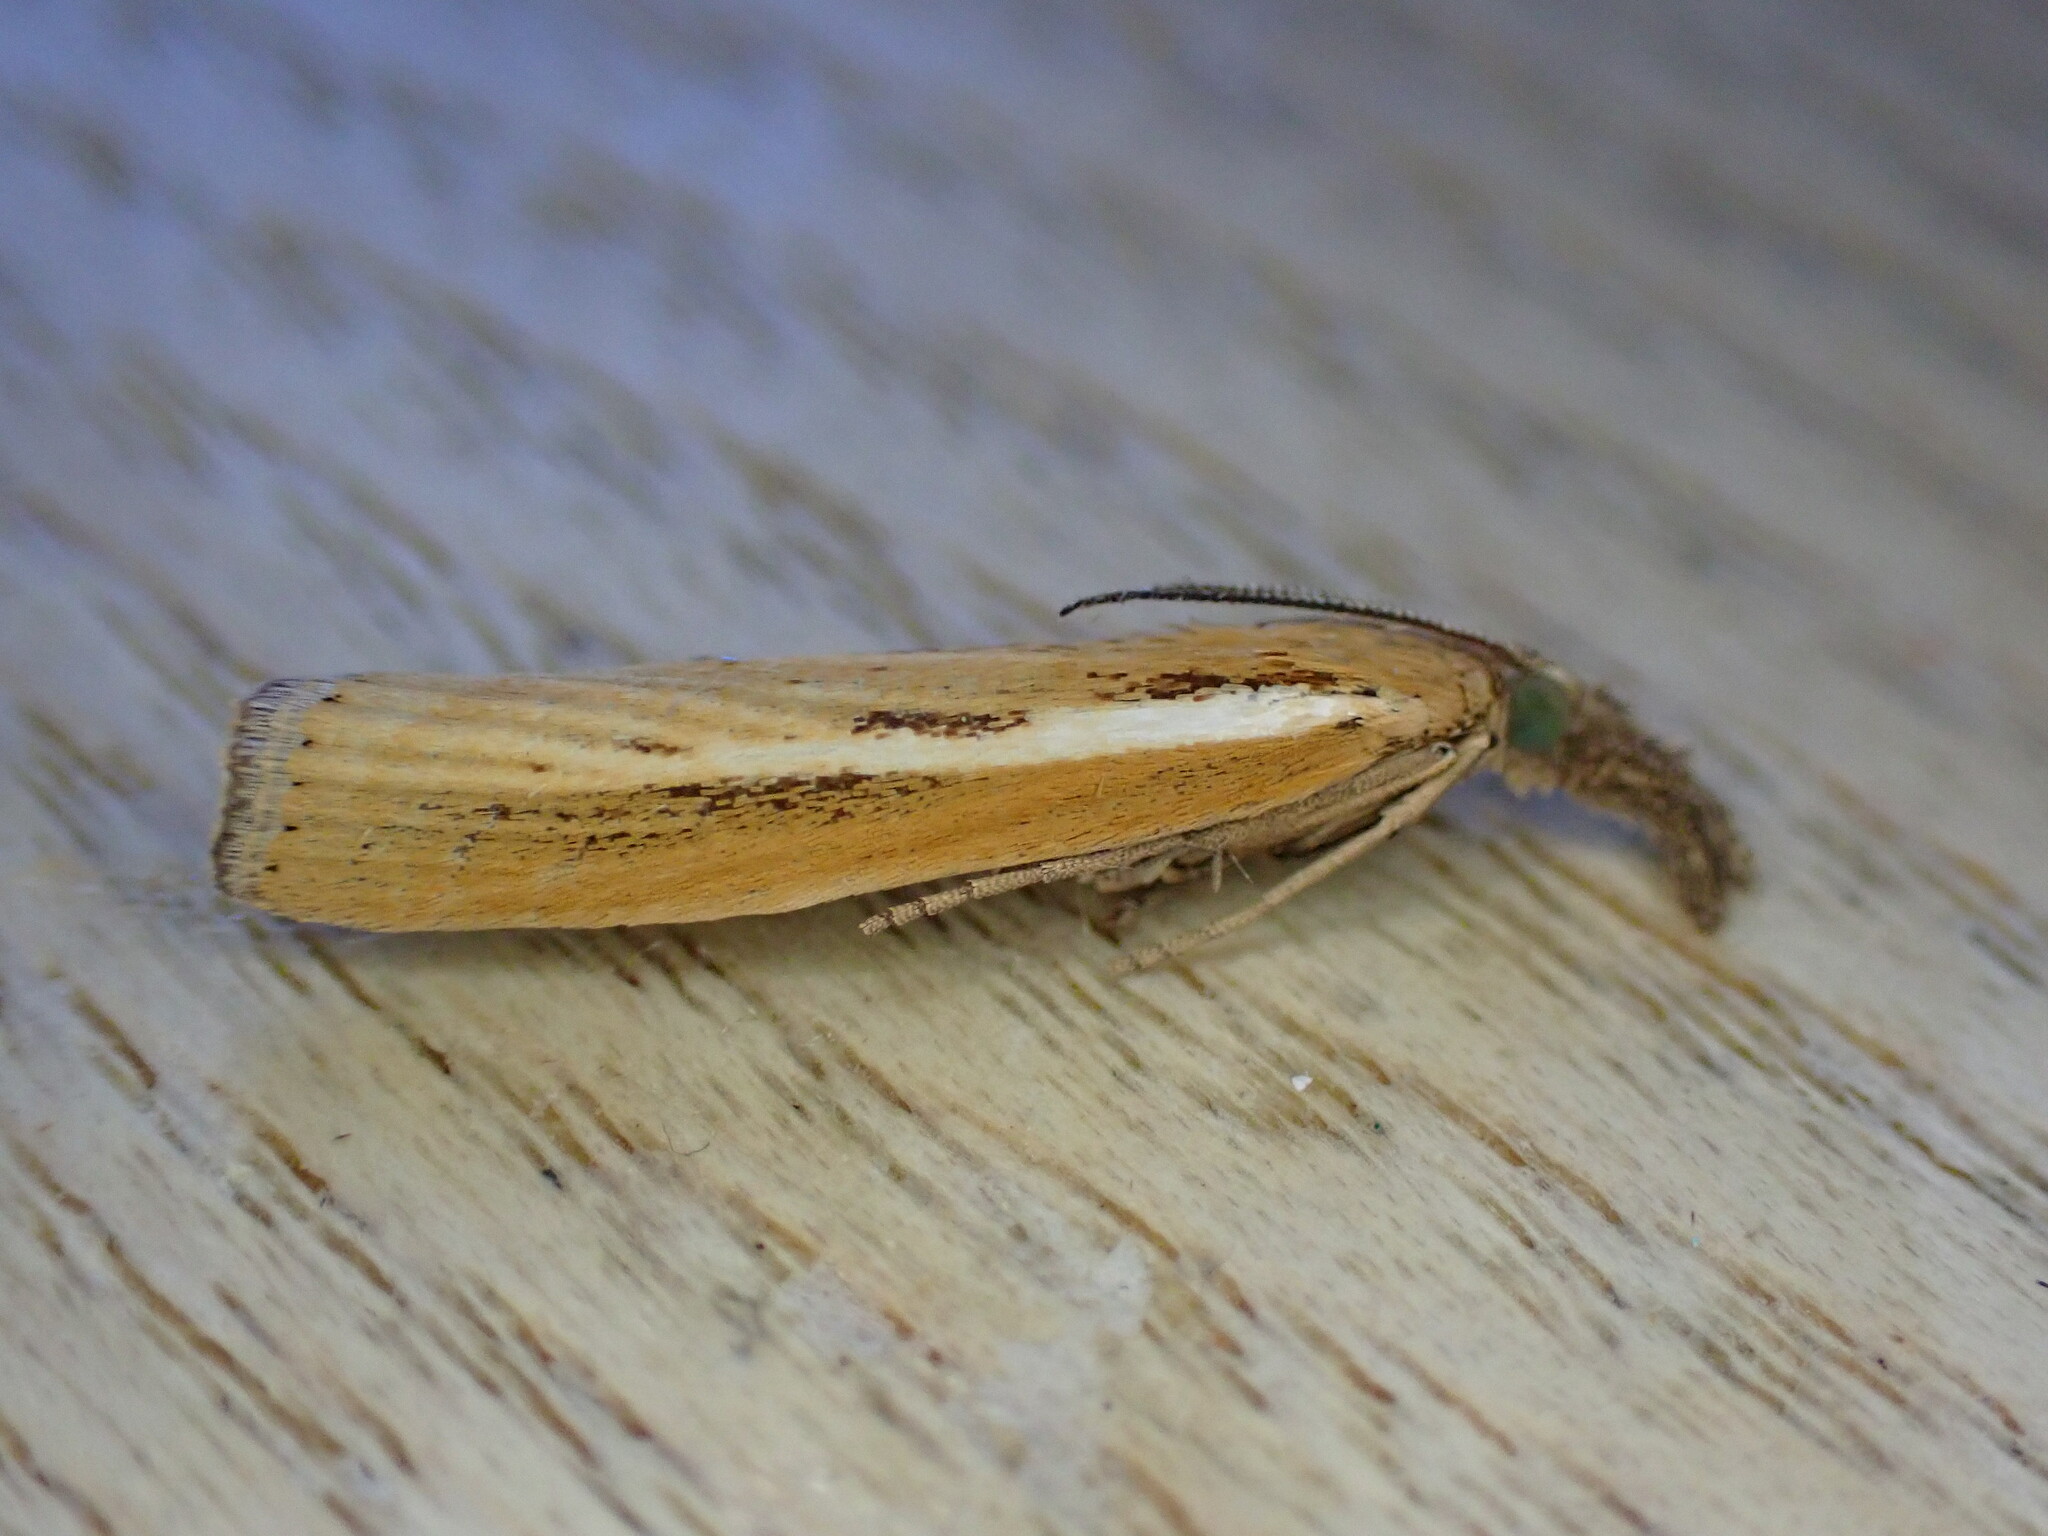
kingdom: Animalia
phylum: Arthropoda
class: Insecta
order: Lepidoptera
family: Crambidae
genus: Agriphila
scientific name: Agriphila tristellus
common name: Common grass-veneer
